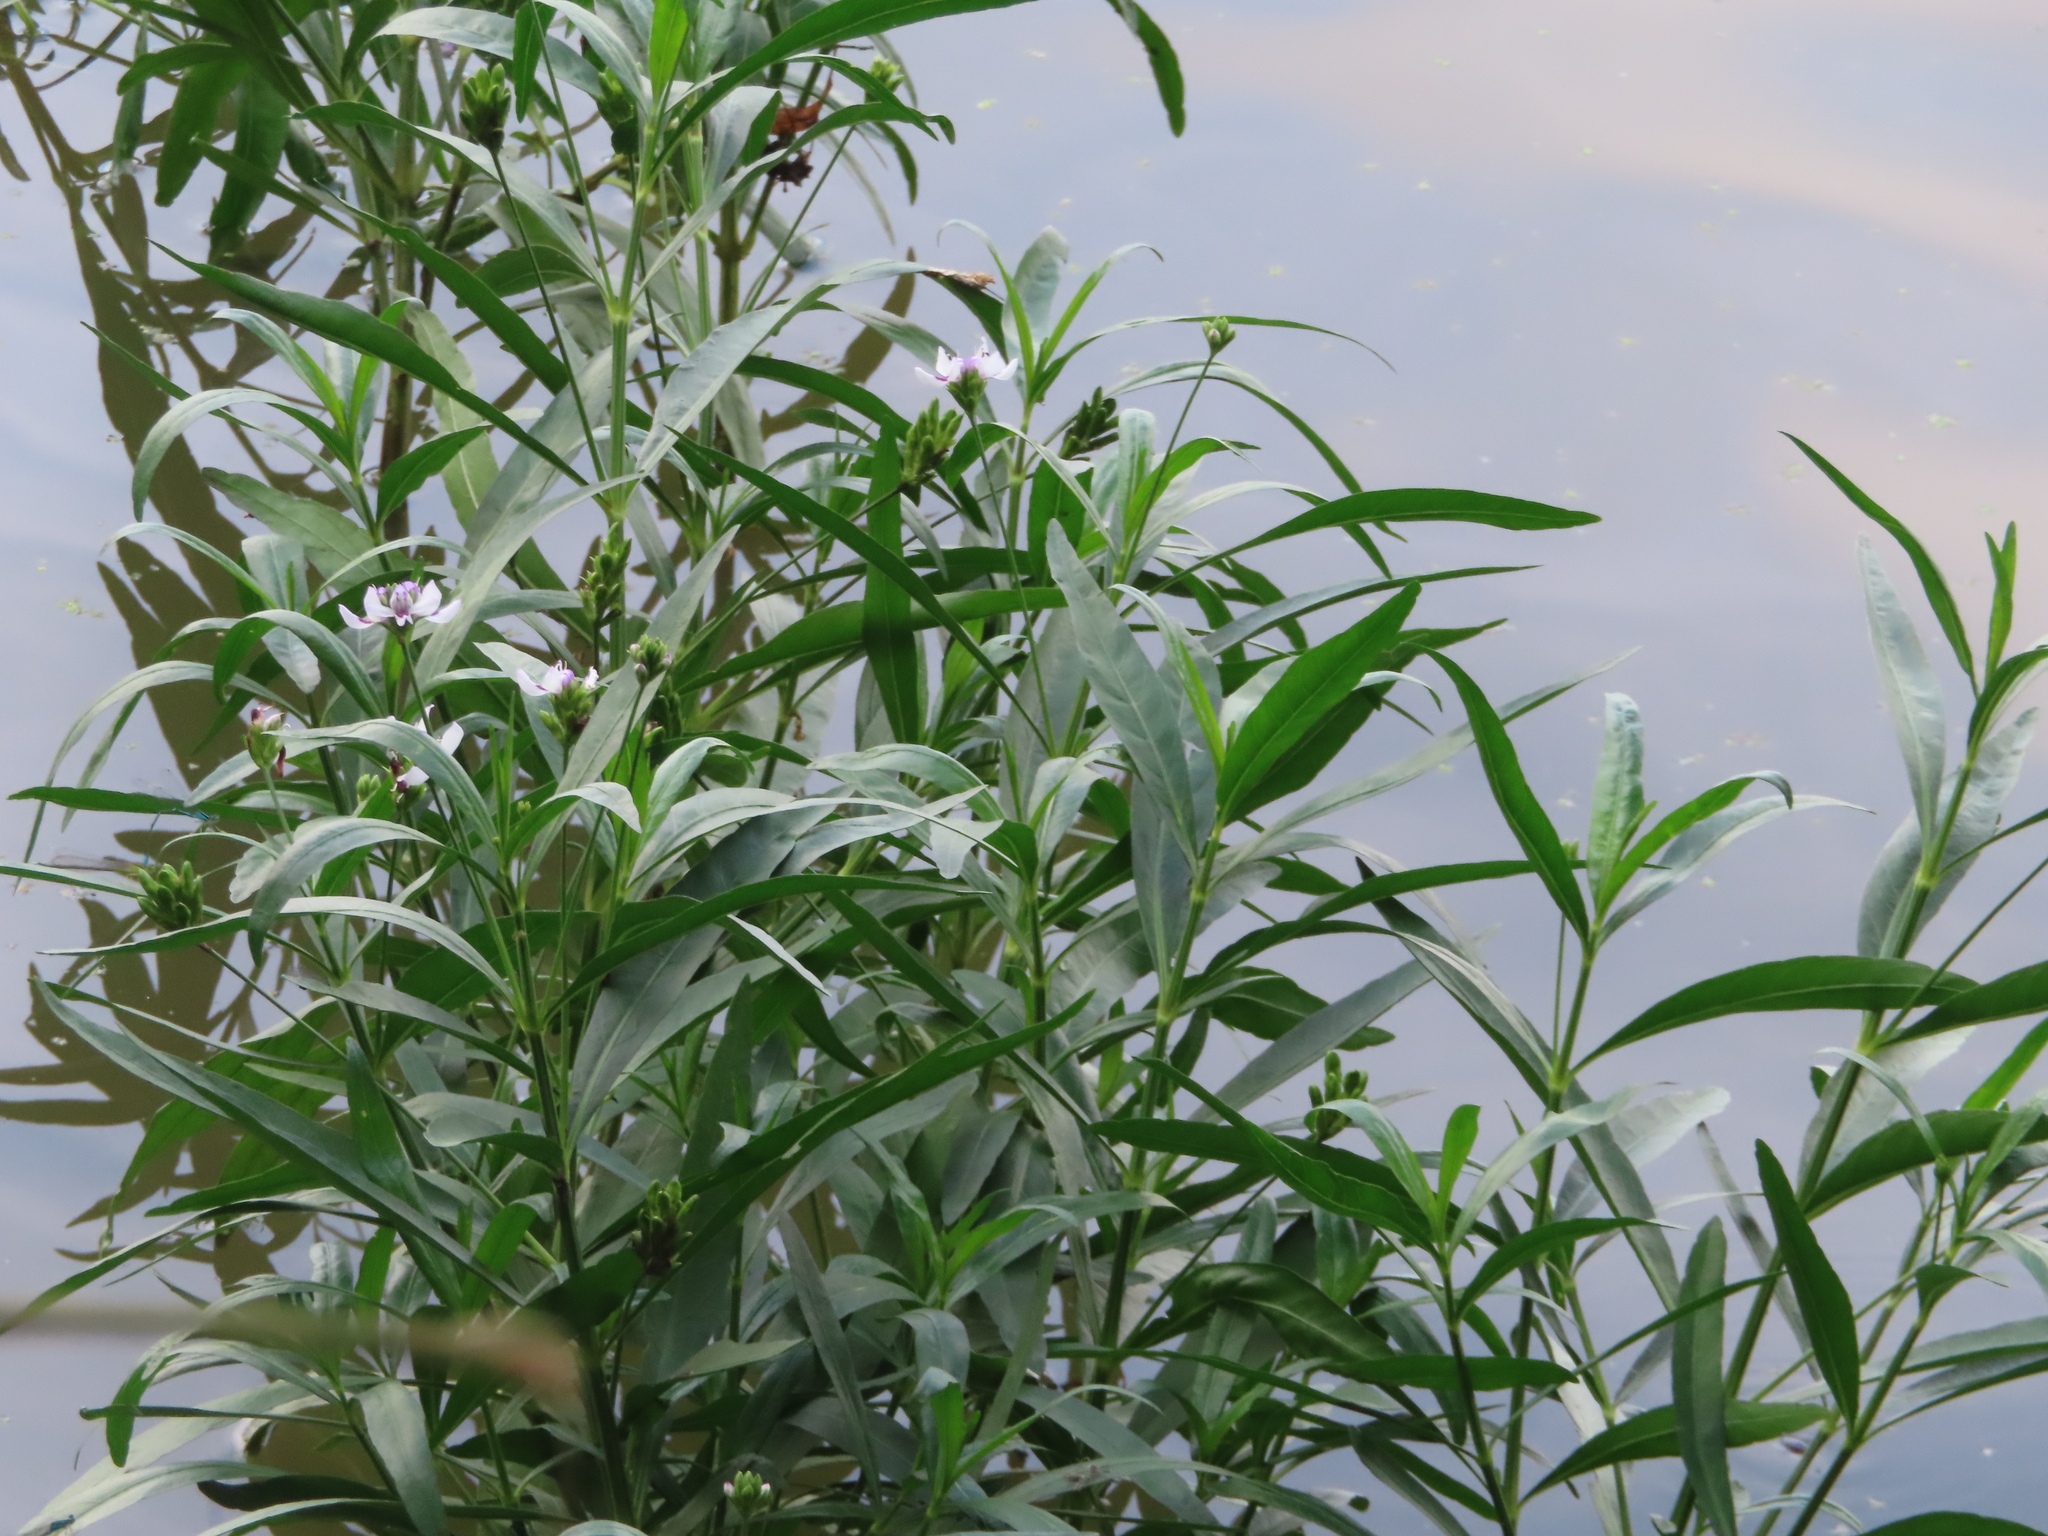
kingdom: Plantae
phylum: Tracheophyta
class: Magnoliopsida
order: Lamiales
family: Acanthaceae
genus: Dianthera
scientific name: Dianthera americana
